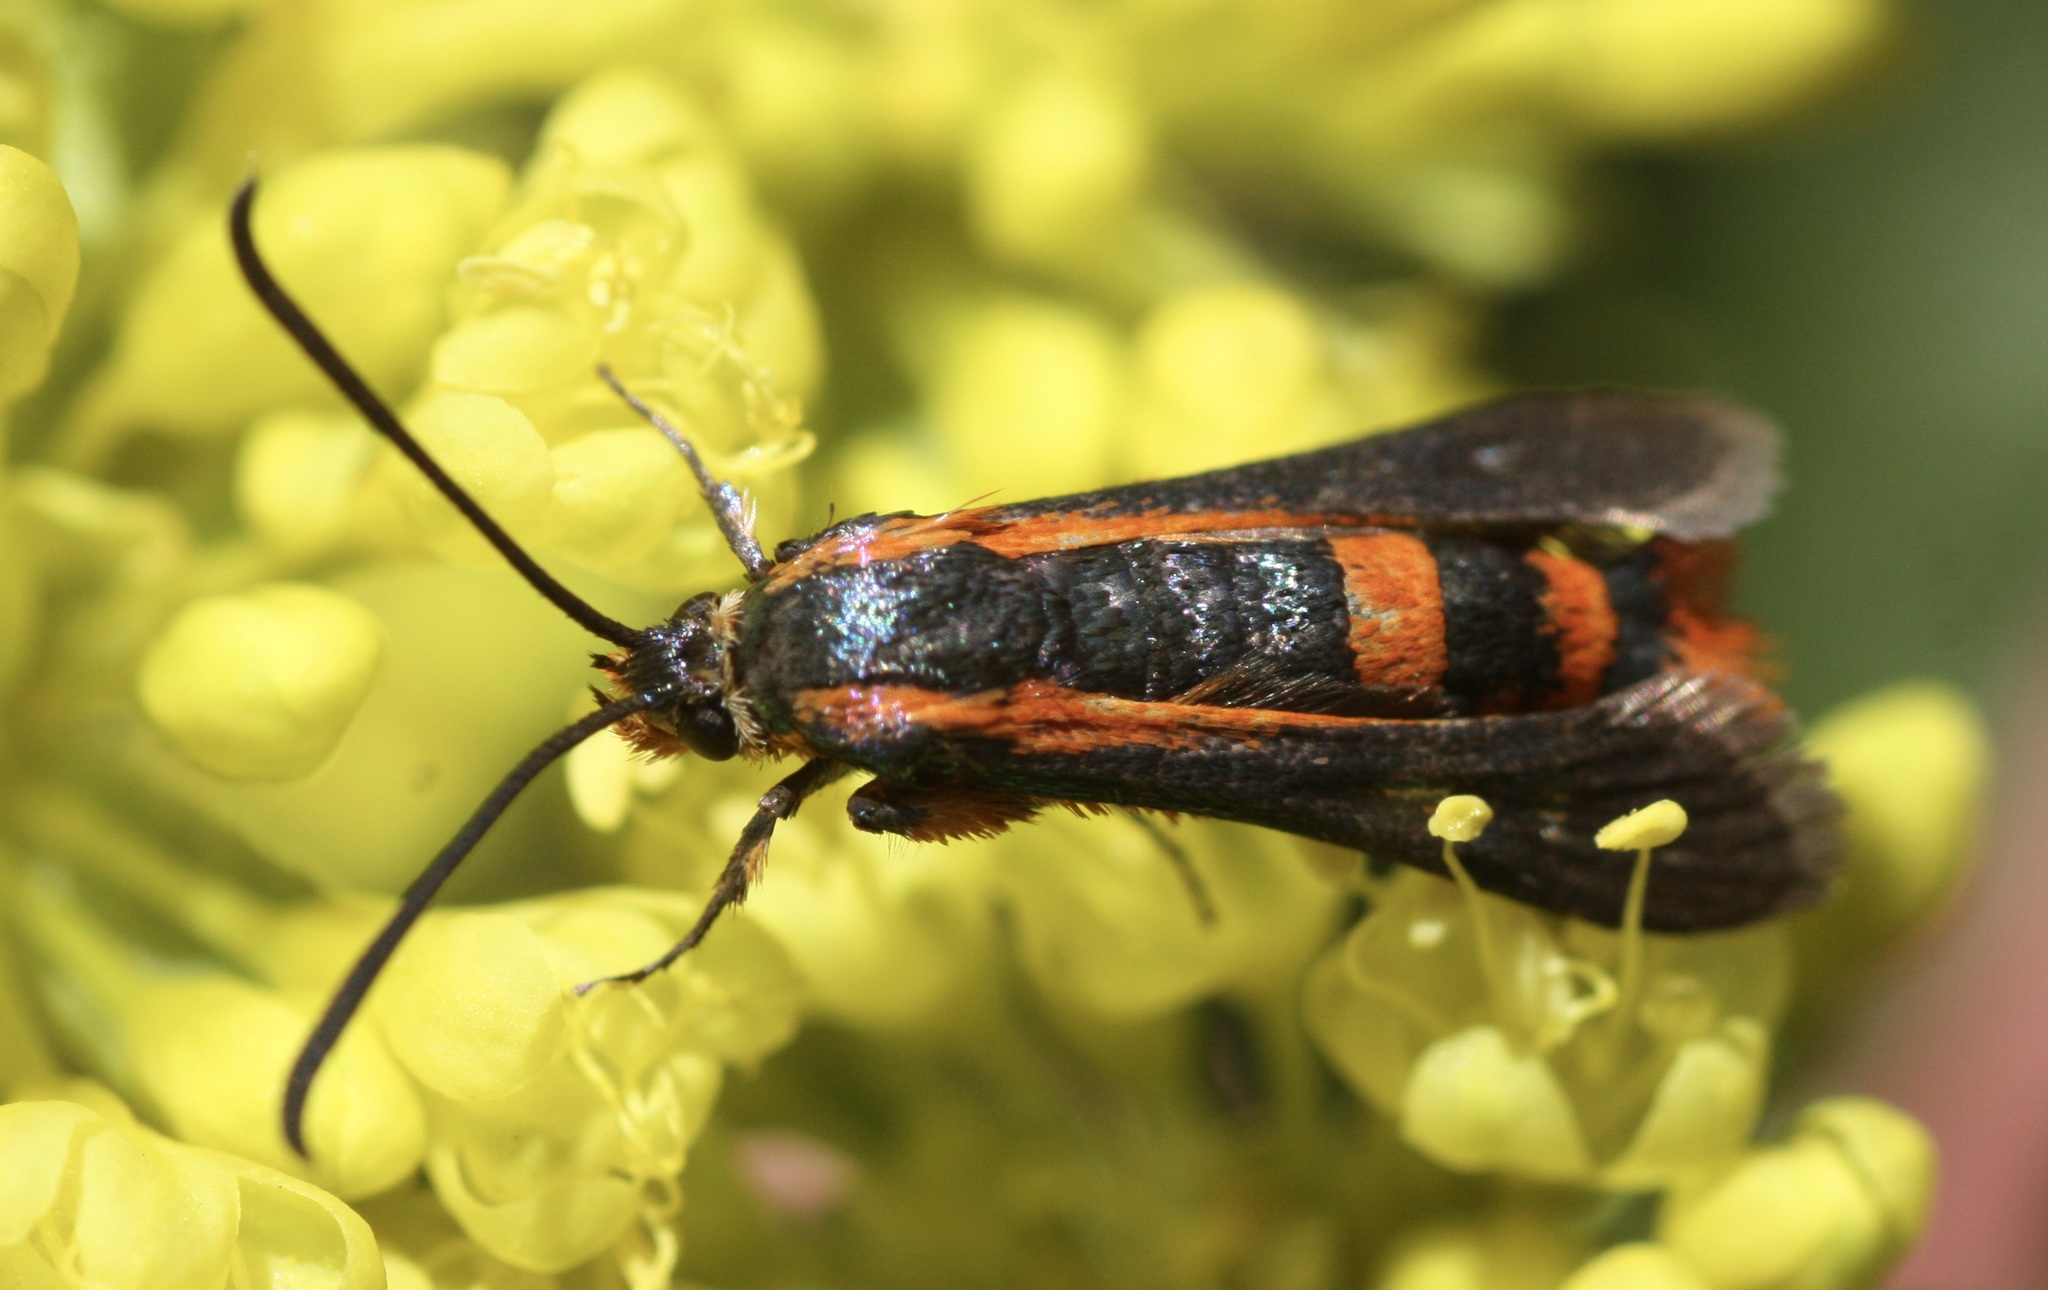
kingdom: Animalia
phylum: Arthropoda
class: Insecta
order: Lepidoptera
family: Sesiidae
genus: Synanthedon
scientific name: Synanthedon polygoni
